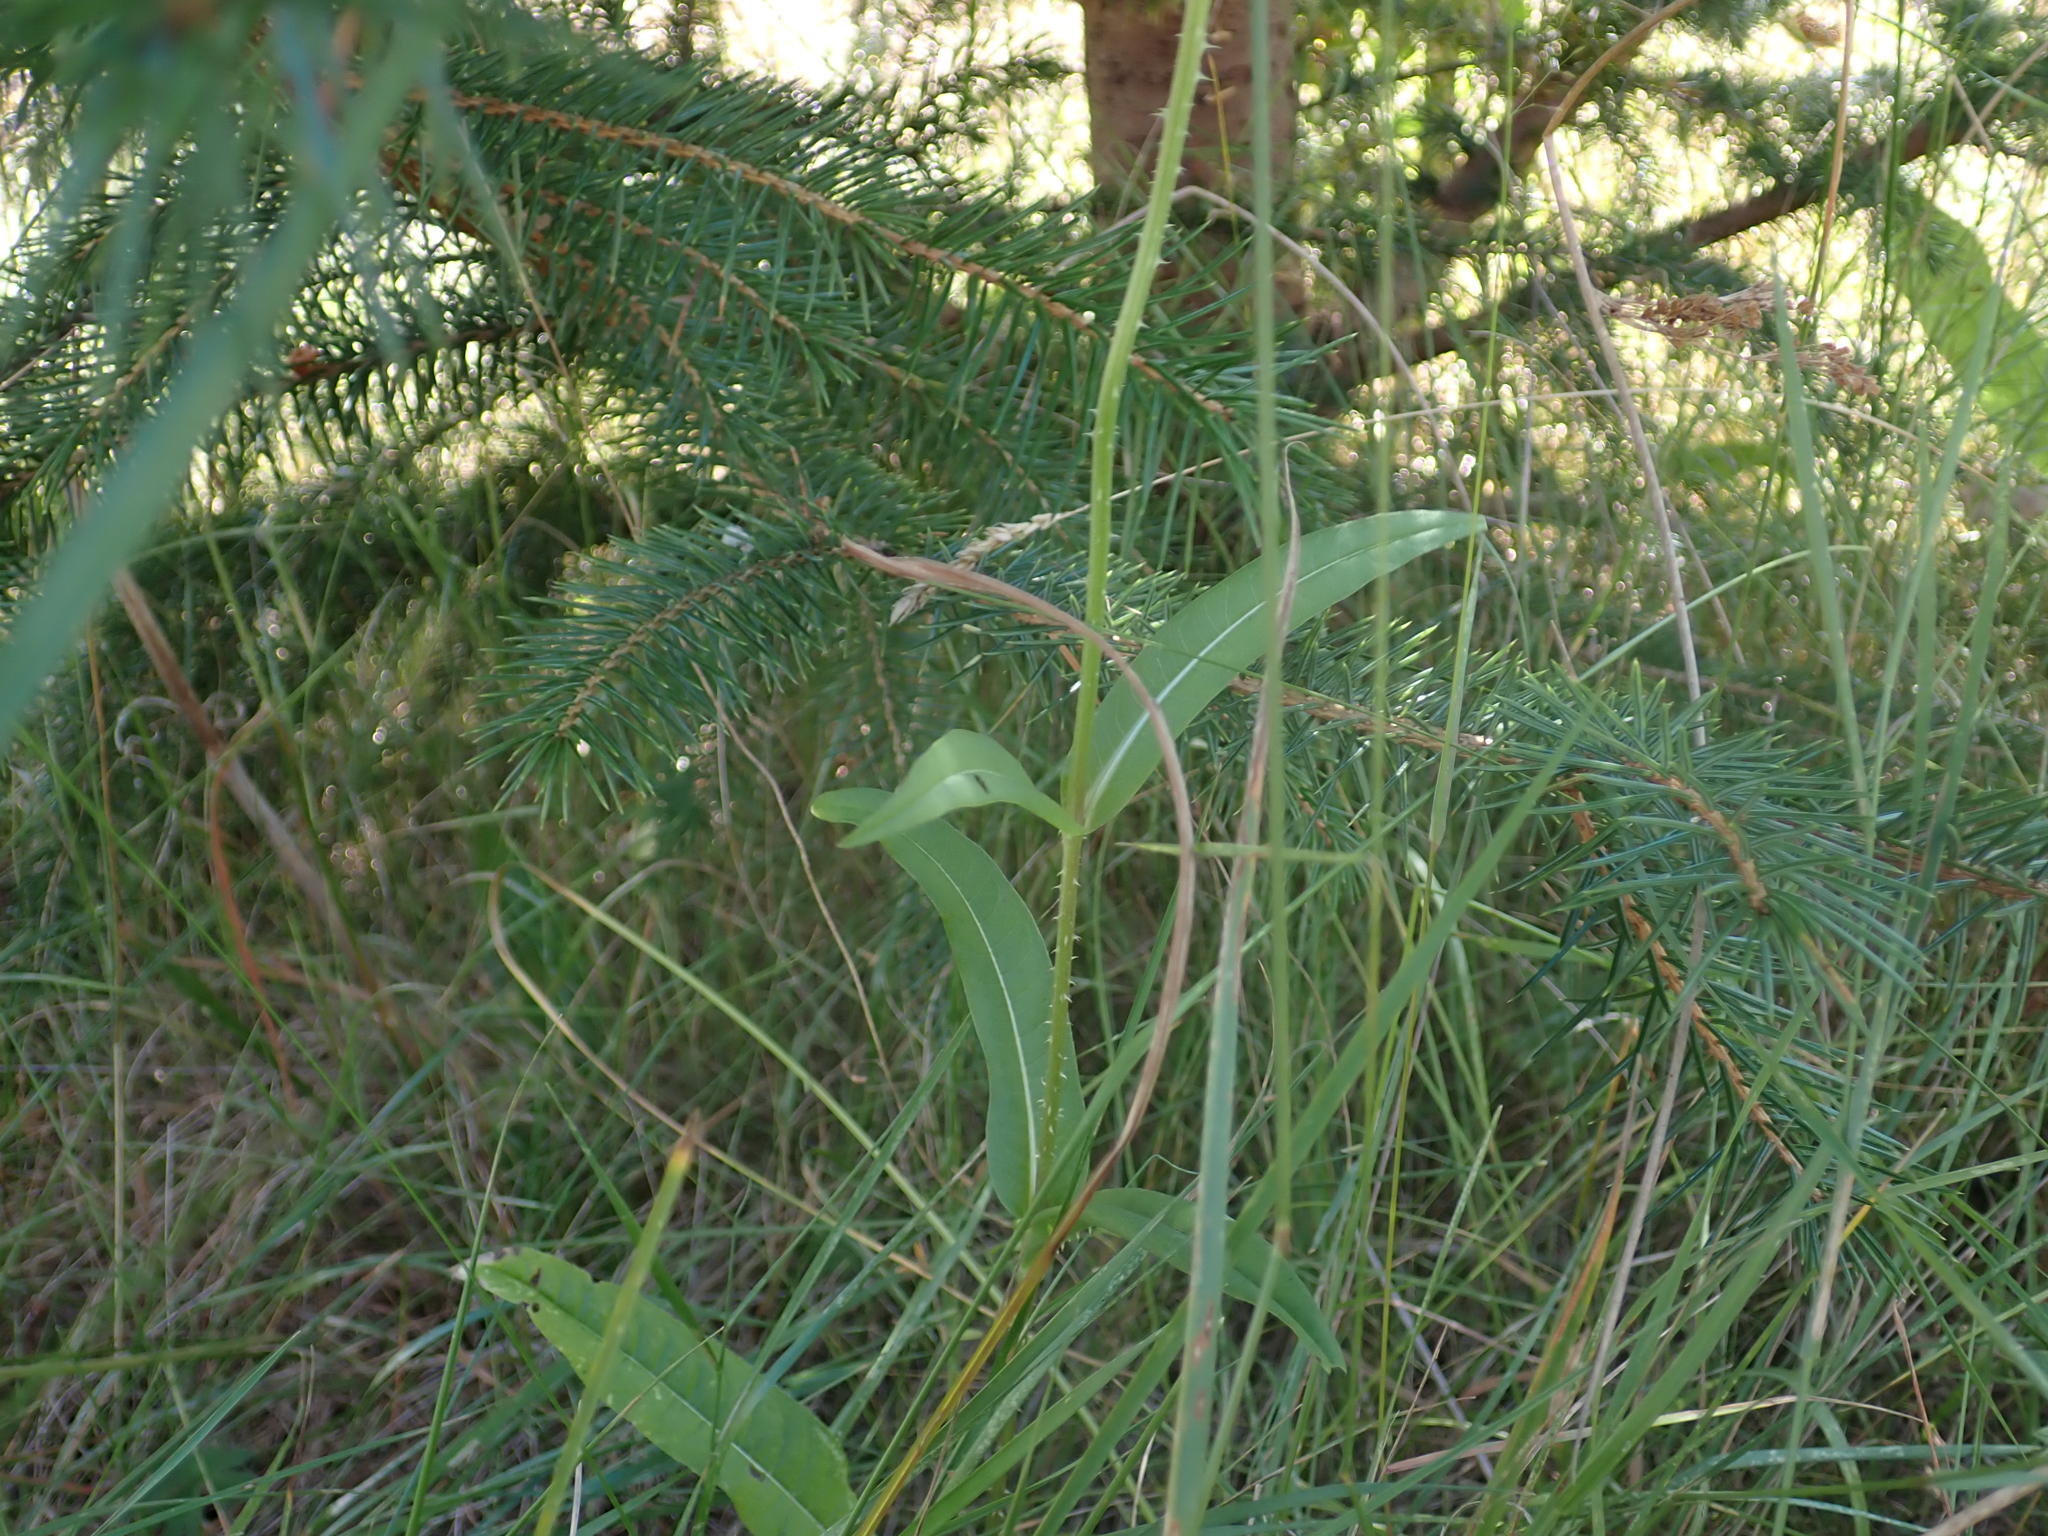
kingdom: Plantae
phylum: Tracheophyta
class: Magnoliopsida
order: Dipsacales
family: Caprifoliaceae
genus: Dipsacus
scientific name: Dipsacus fullonum
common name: Teasel
